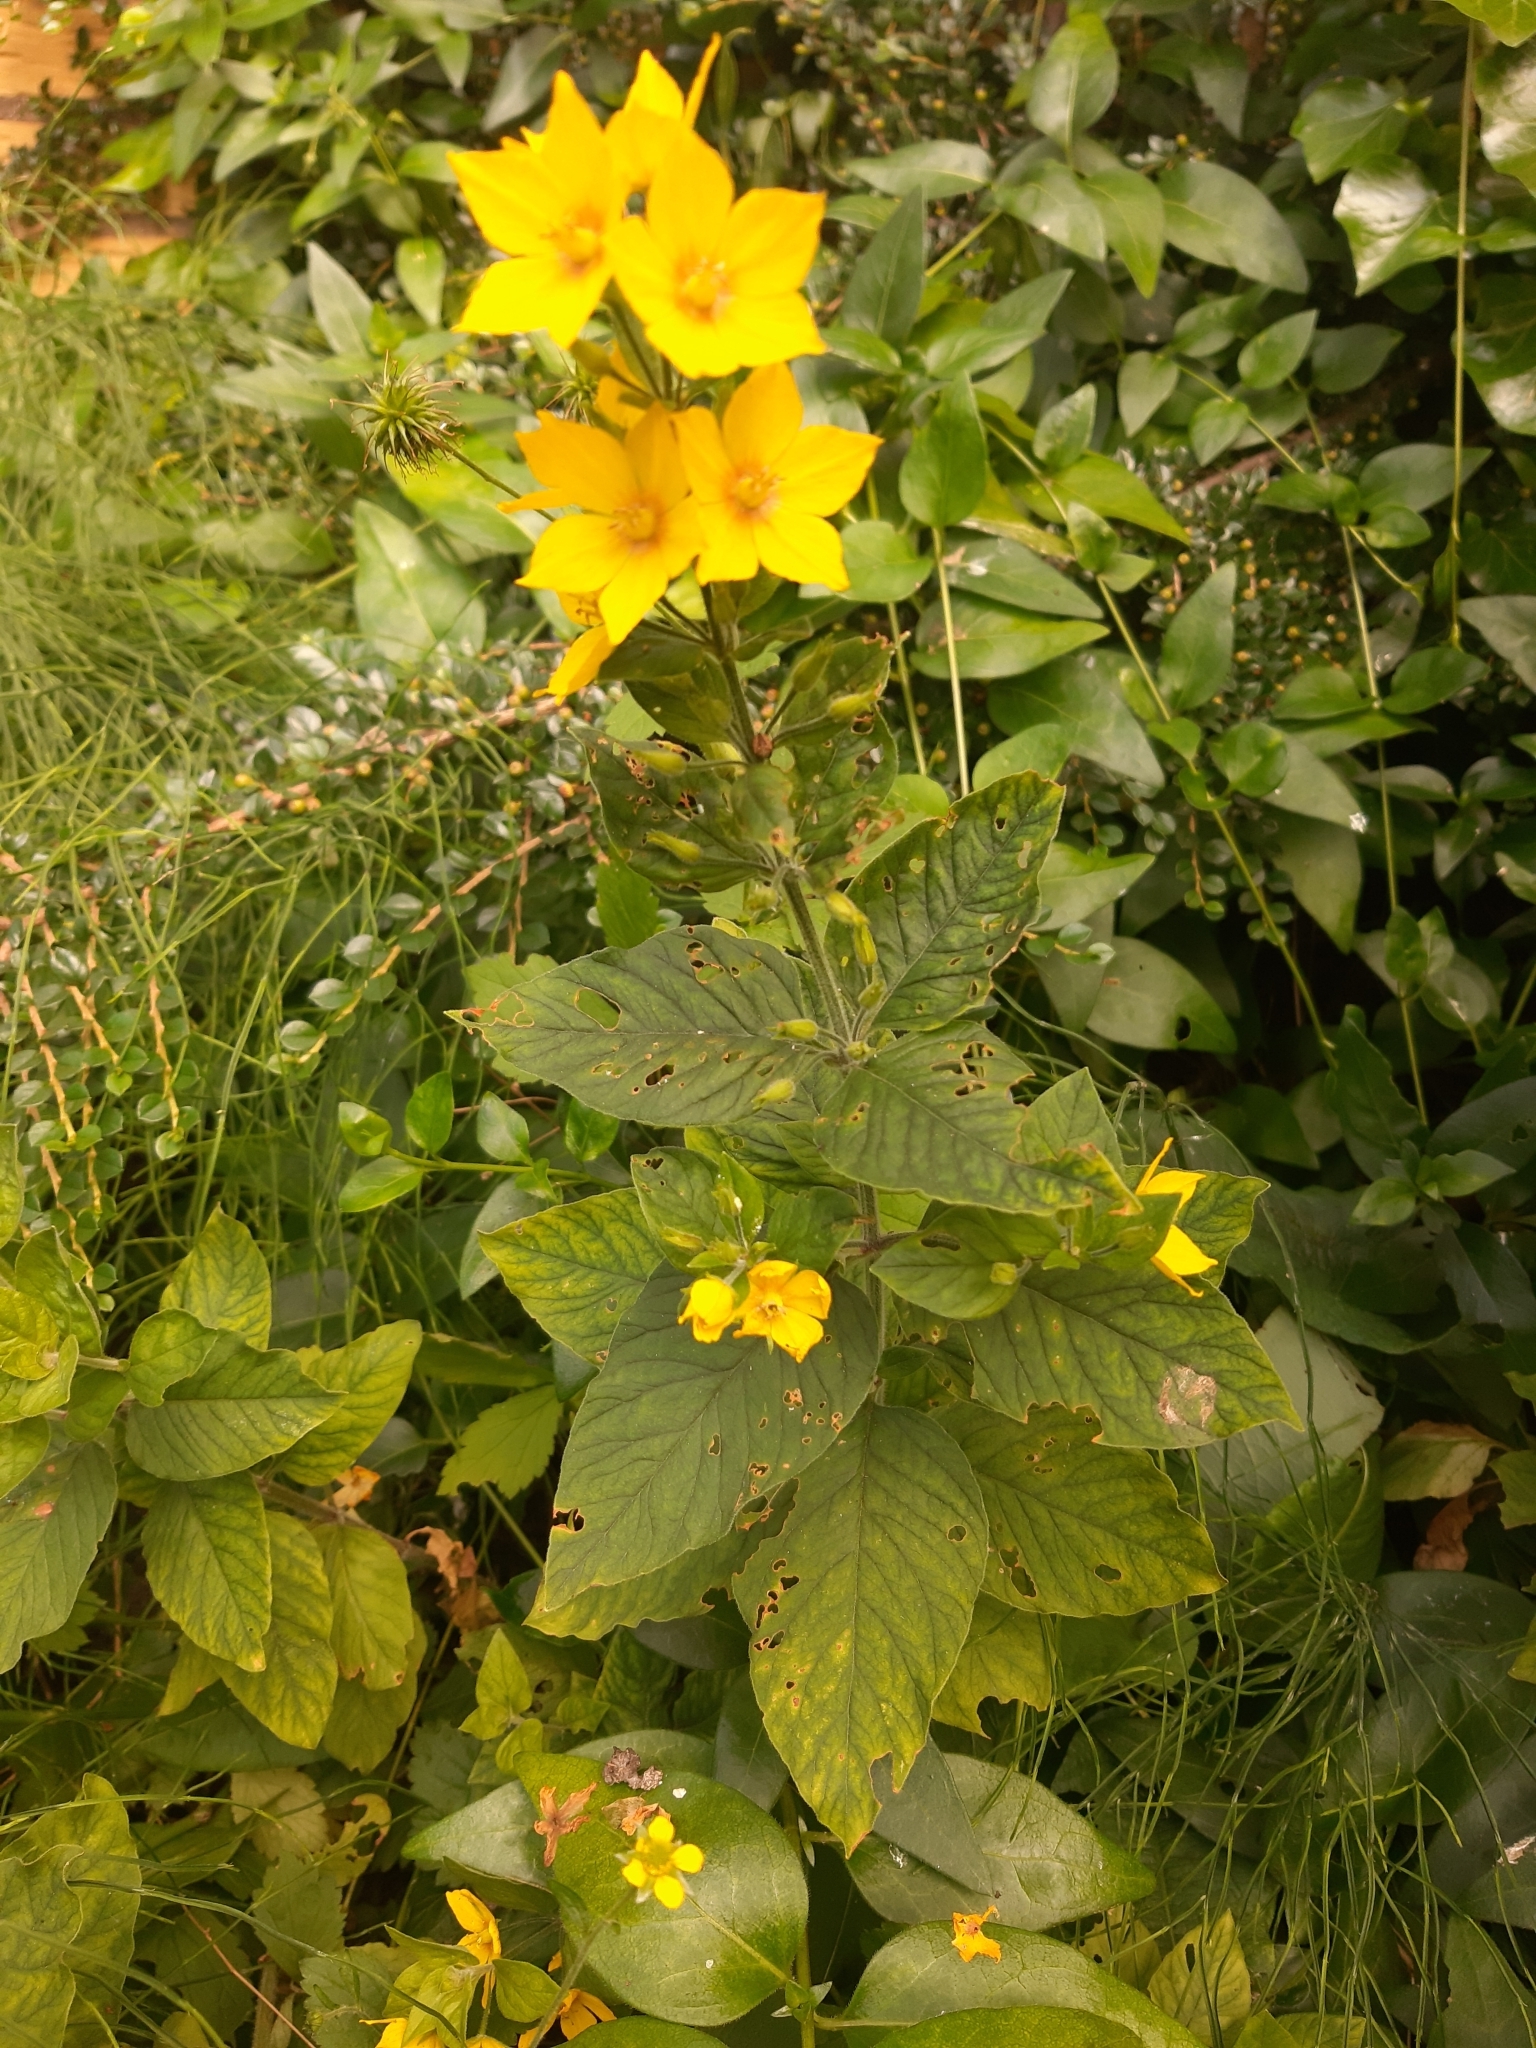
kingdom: Plantae
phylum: Tracheophyta
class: Magnoliopsida
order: Ericales
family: Primulaceae
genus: Lysimachia
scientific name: Lysimachia punctata
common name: Dotted loosestrife
